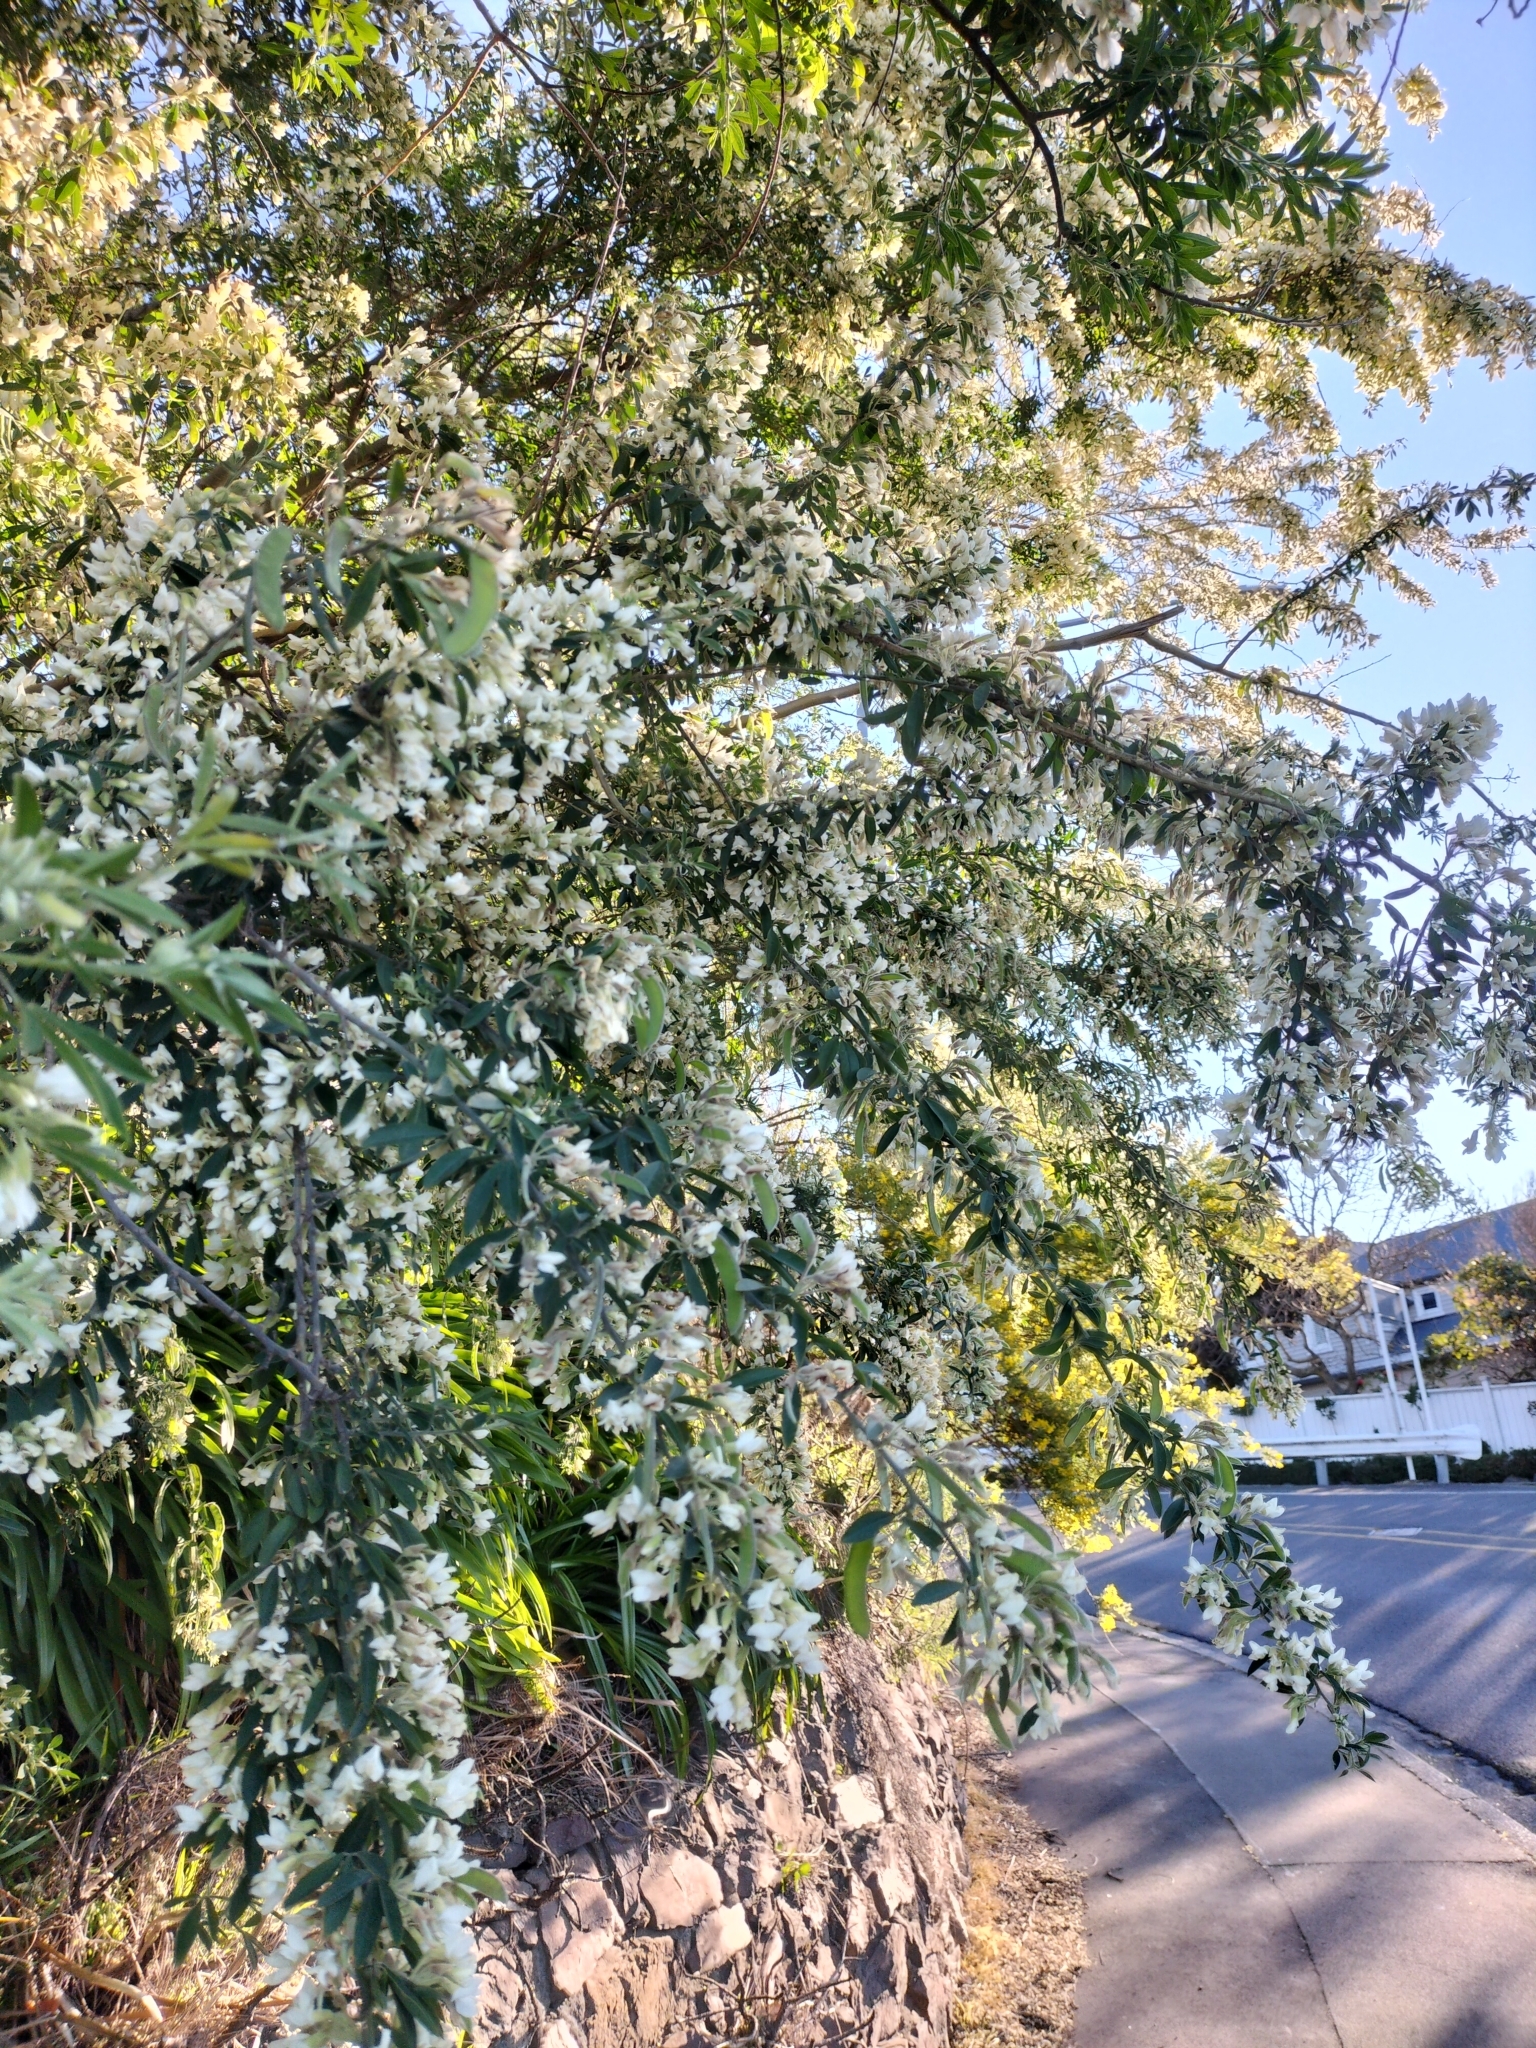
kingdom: Plantae
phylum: Tracheophyta
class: Magnoliopsida
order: Fabales
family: Fabaceae
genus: Chamaecytisus
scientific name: Chamaecytisus prolifer
